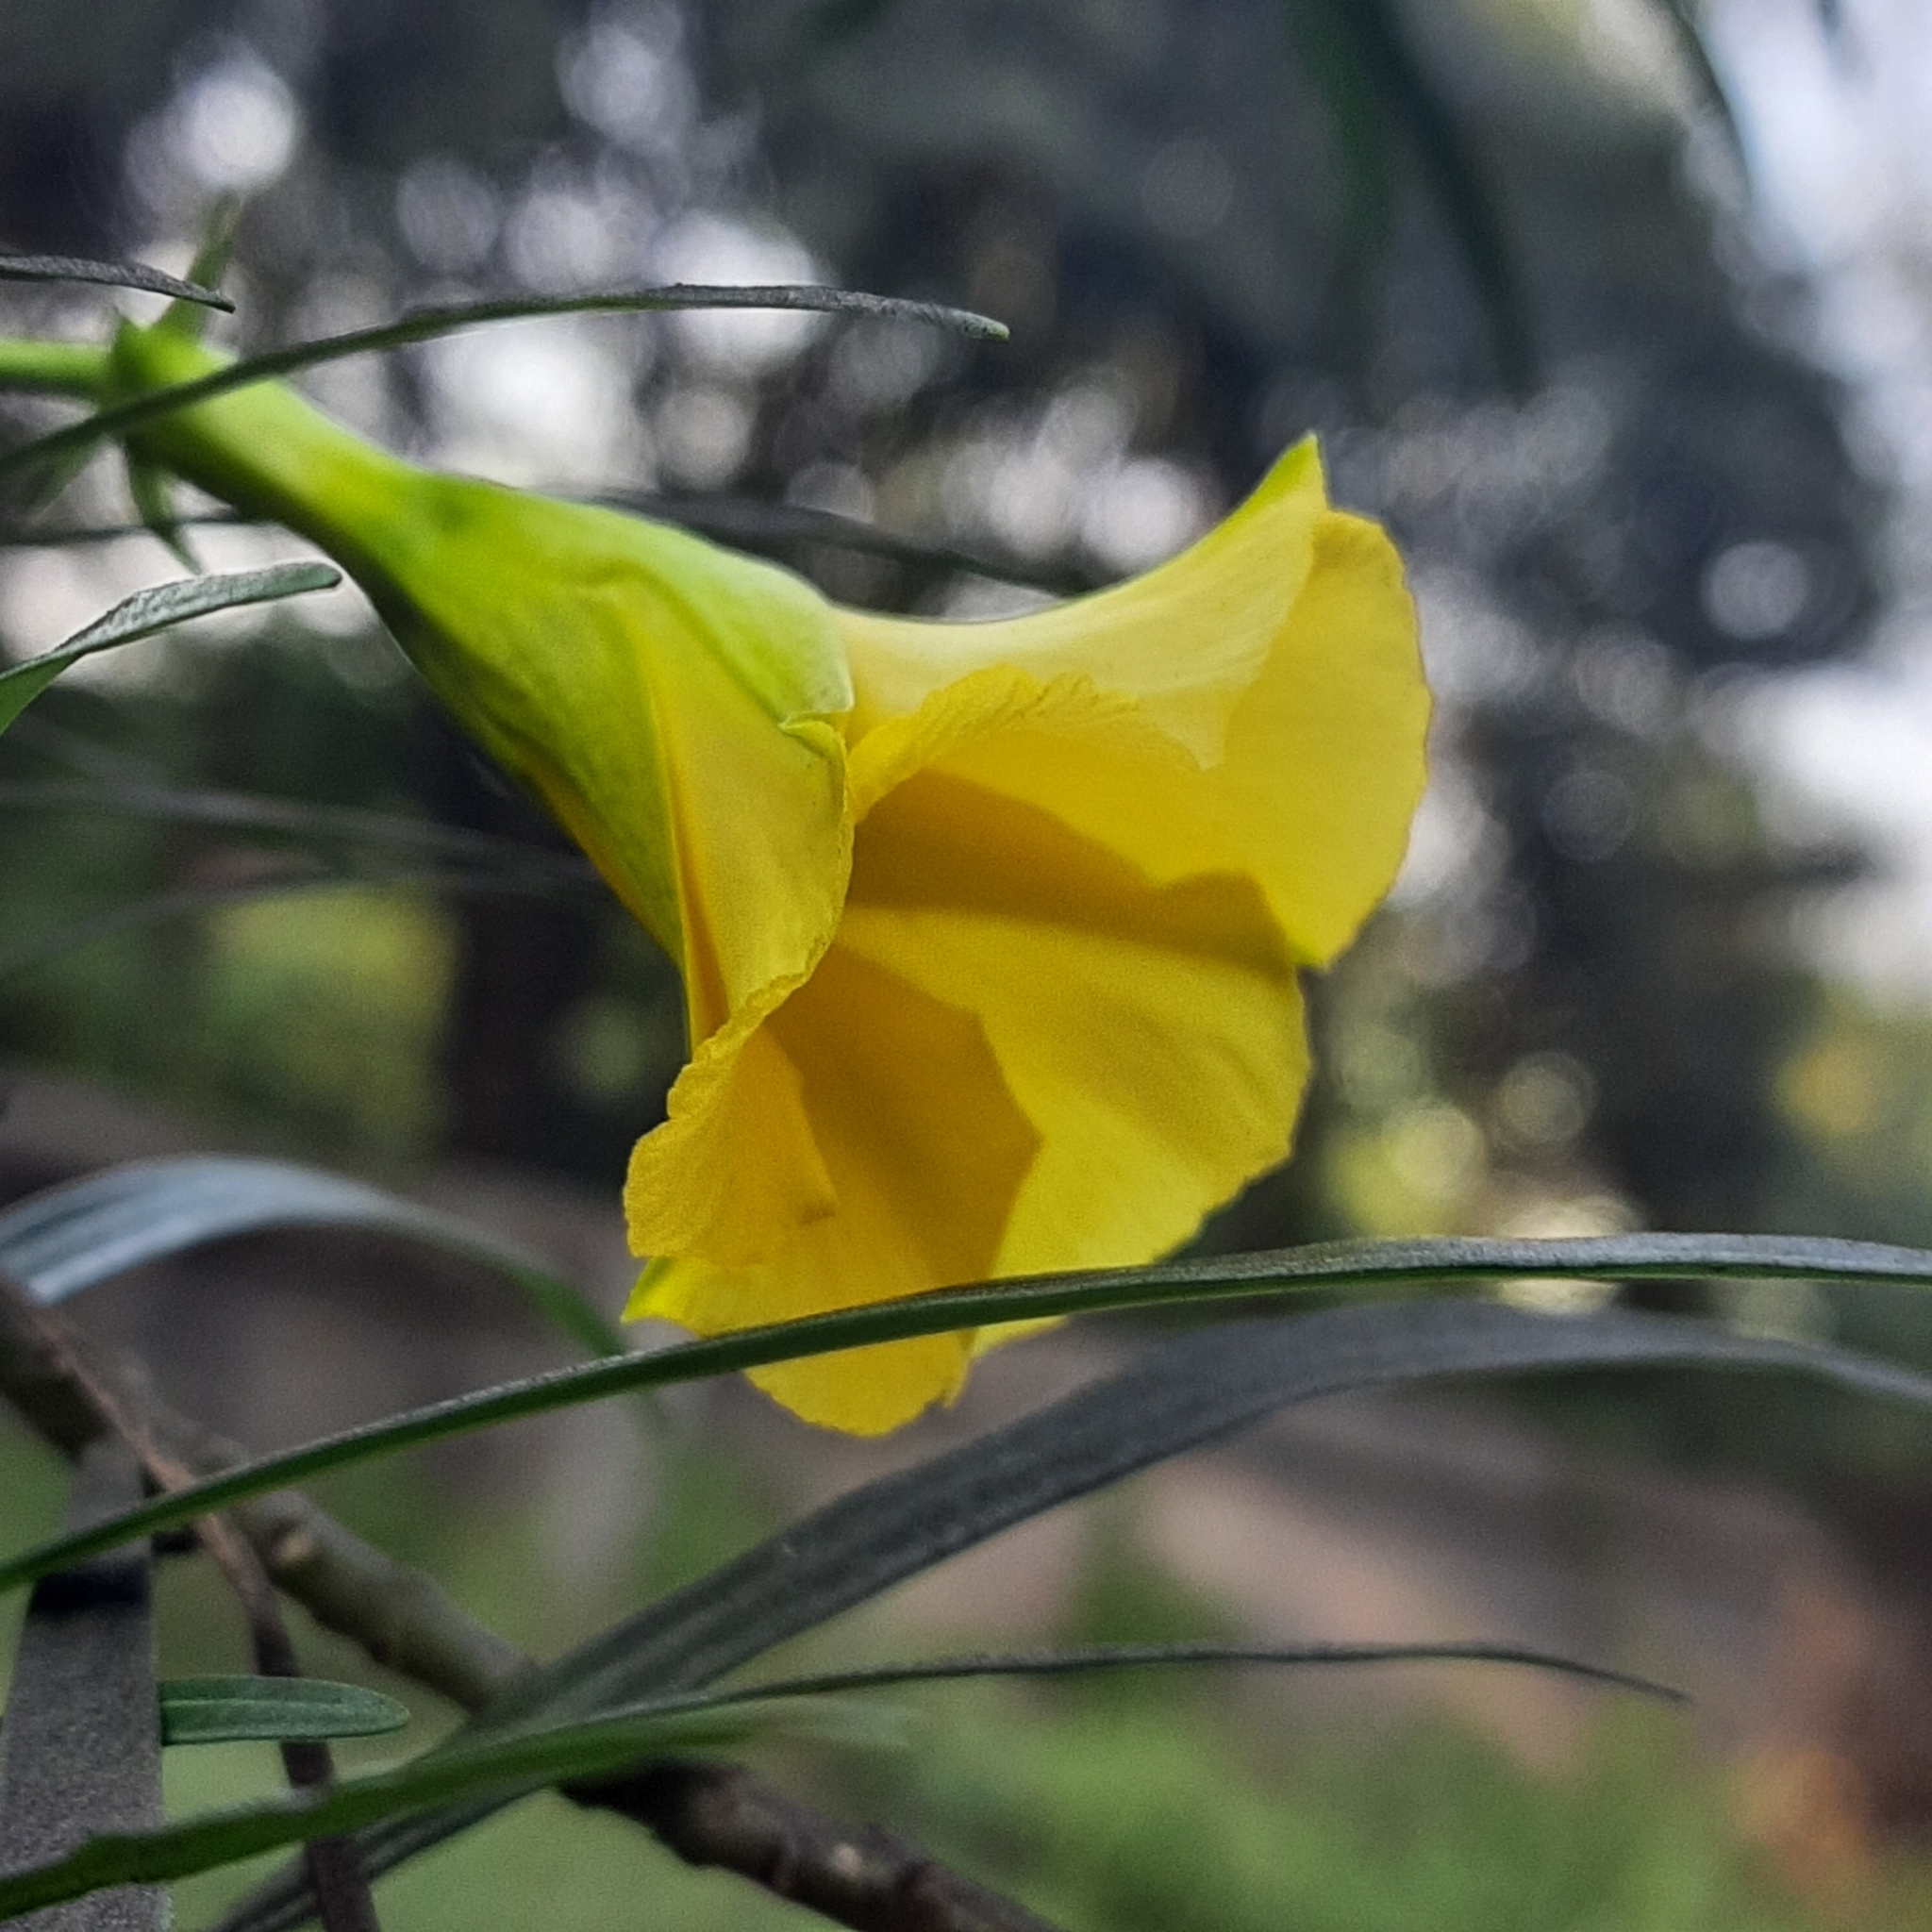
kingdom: Plantae
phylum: Tracheophyta
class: Magnoliopsida
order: Gentianales
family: Apocynaceae
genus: Cascabela
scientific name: Cascabela thevetia
